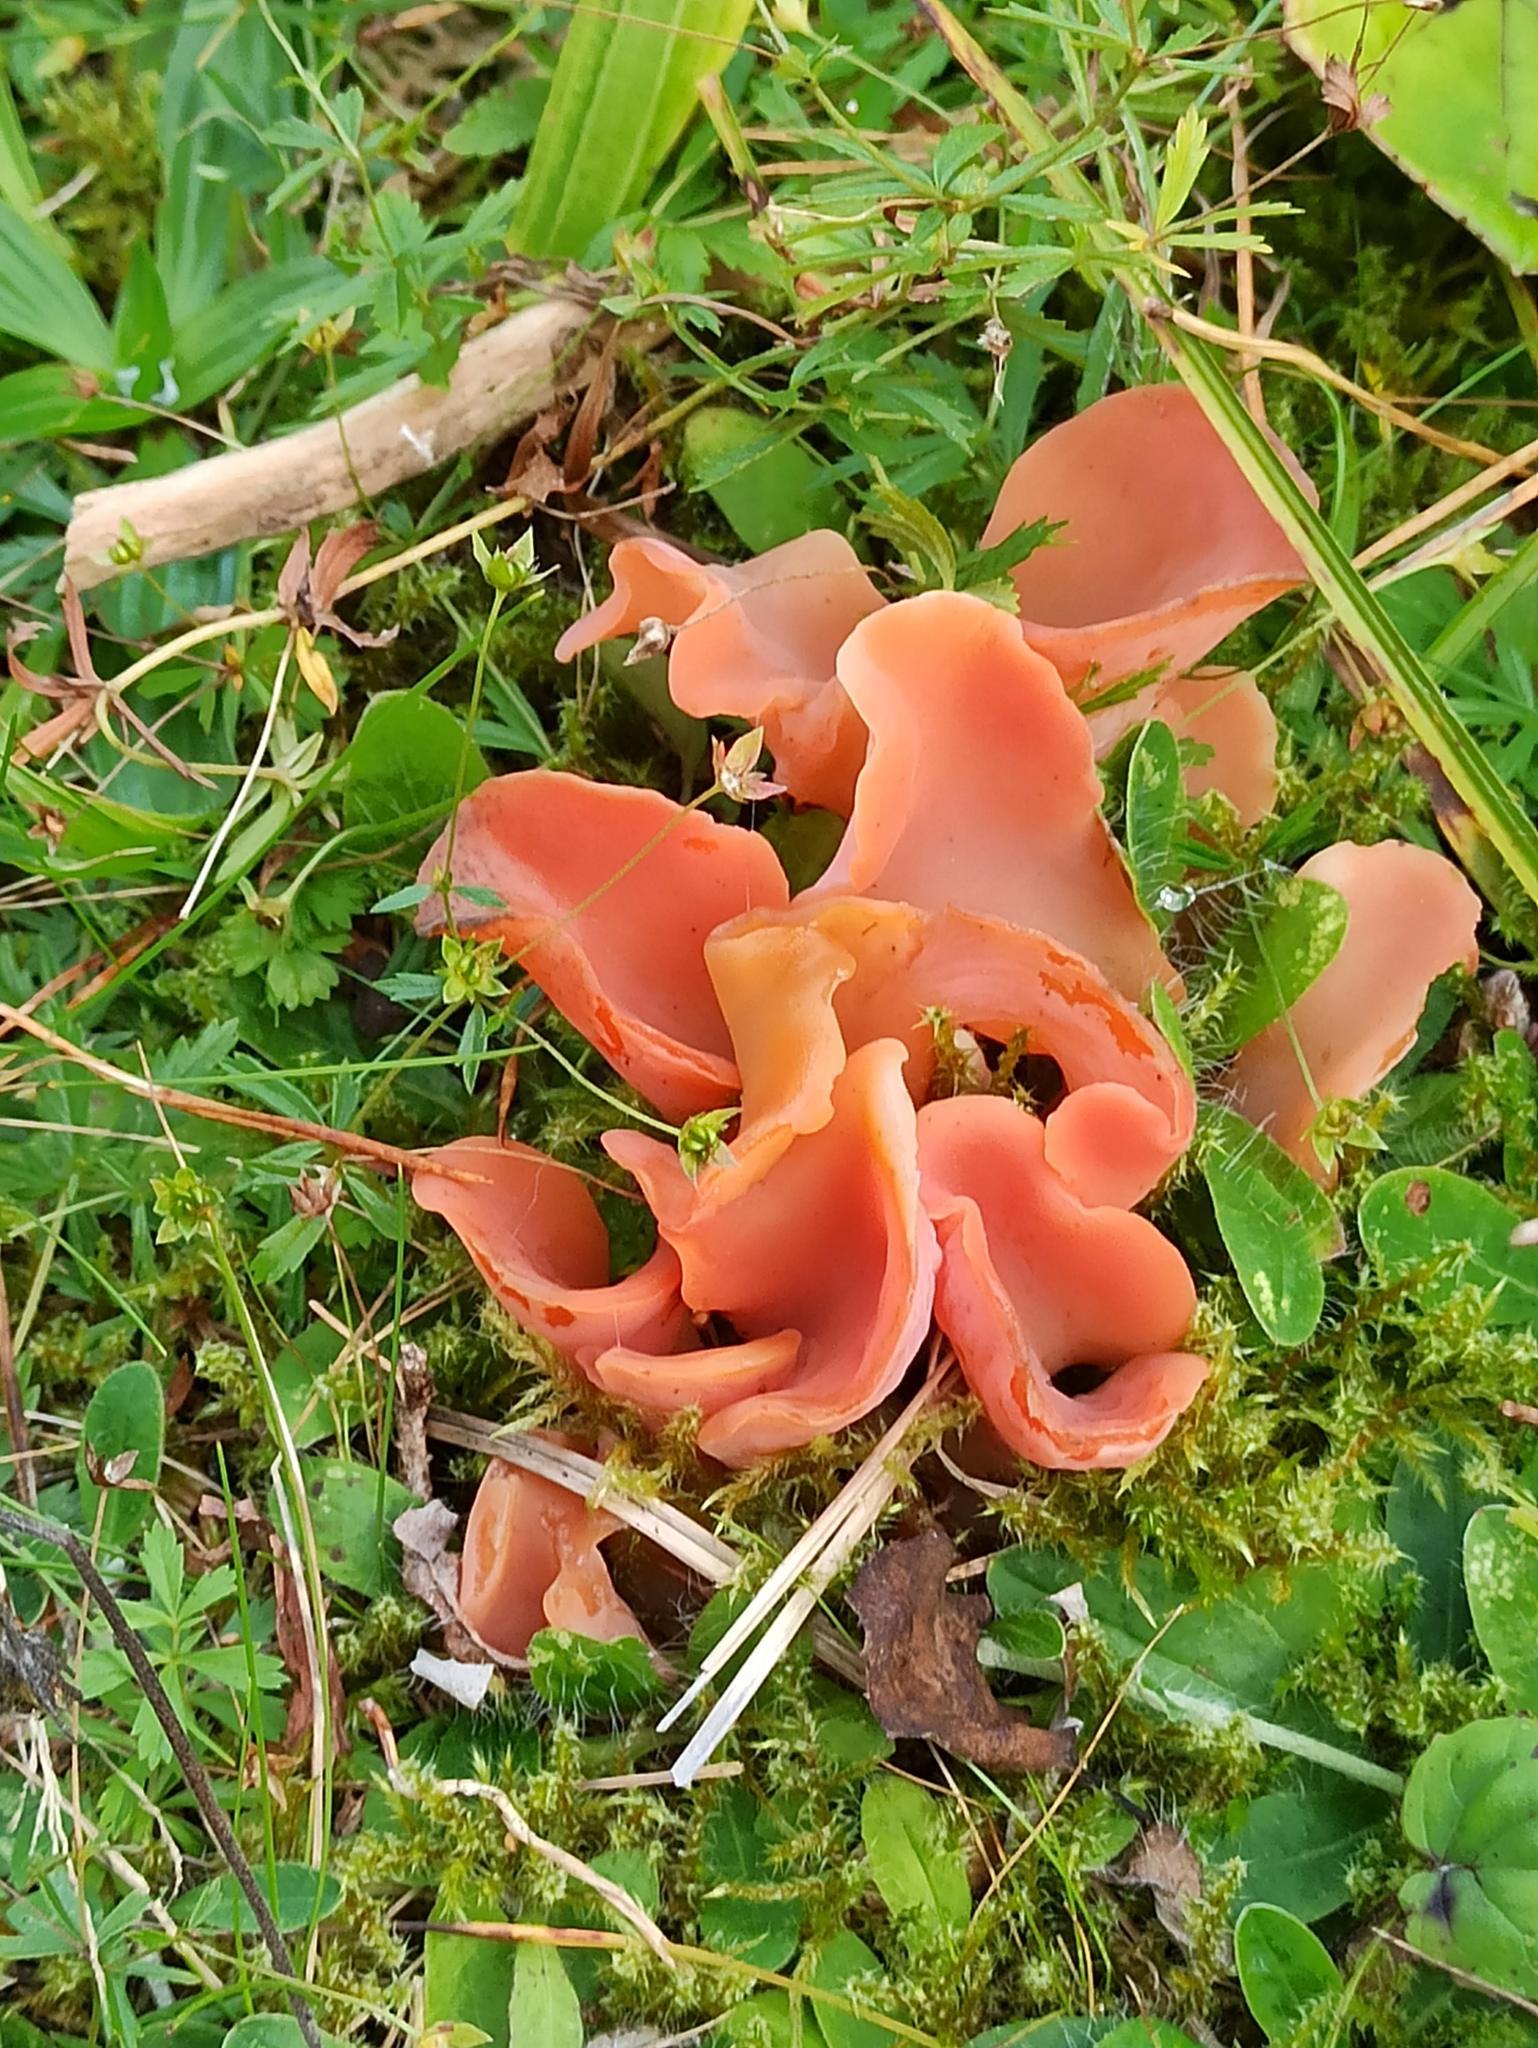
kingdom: Fungi
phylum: Basidiomycota
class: Agaricomycetes
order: Auriculariales
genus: Guepinia
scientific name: Guepinia helvelloides
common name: Salmon salad
